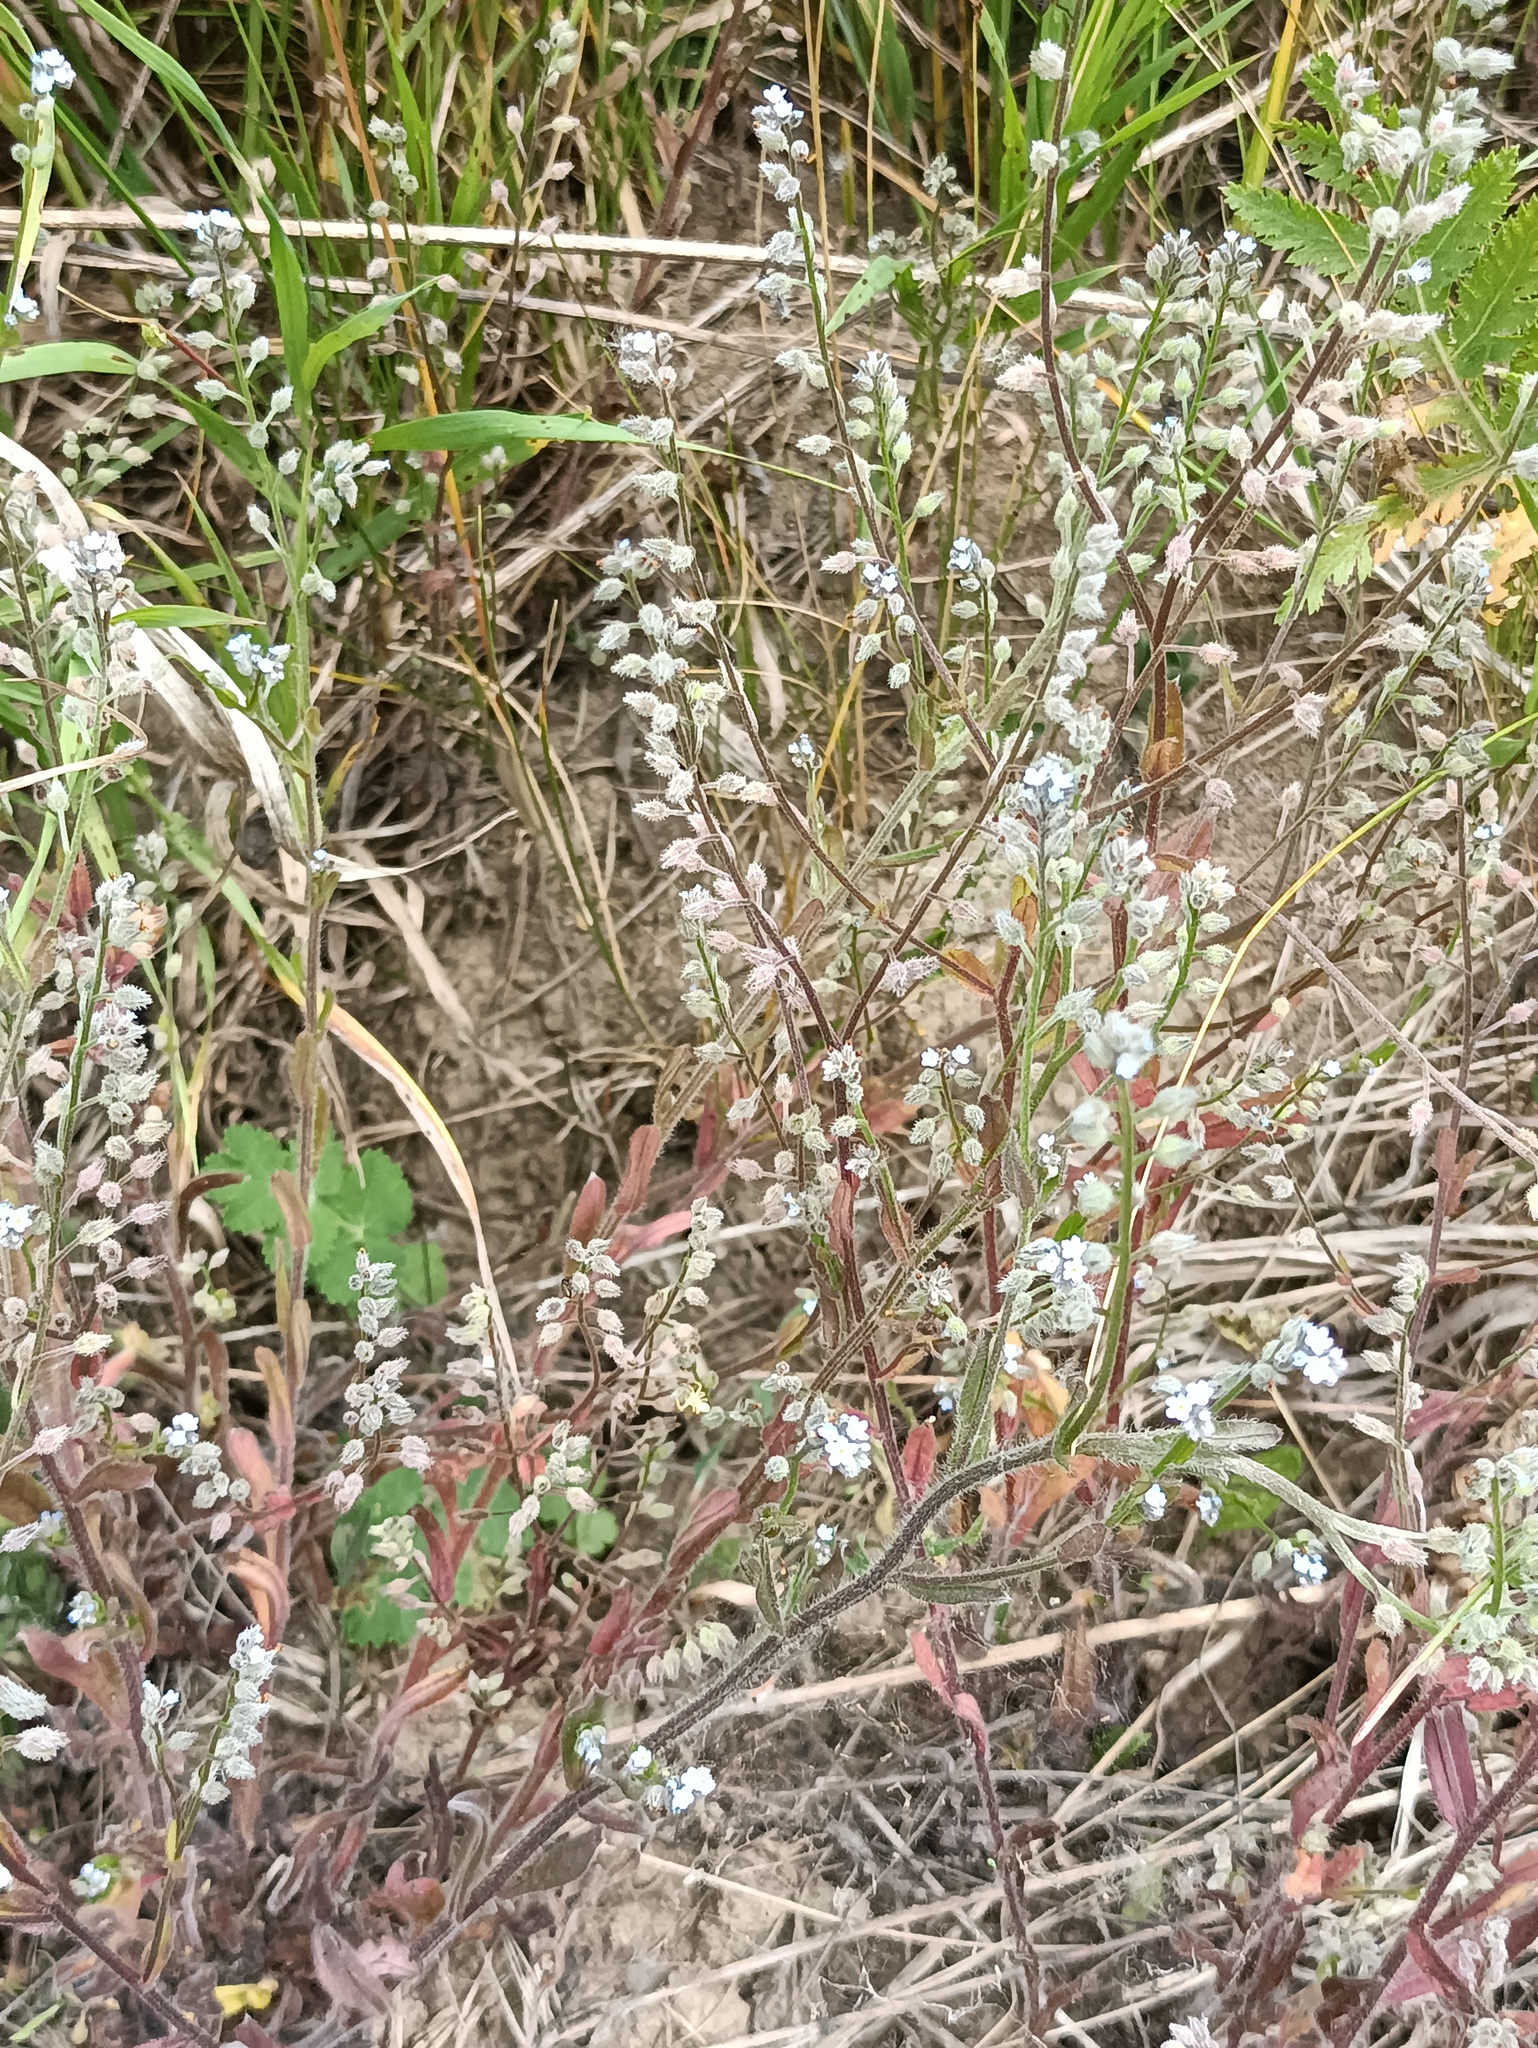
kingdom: Plantae
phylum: Tracheophyta
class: Magnoliopsida
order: Boraginales
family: Boraginaceae
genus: Myosotis
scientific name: Myosotis arvensis
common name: Field forget-me-not
